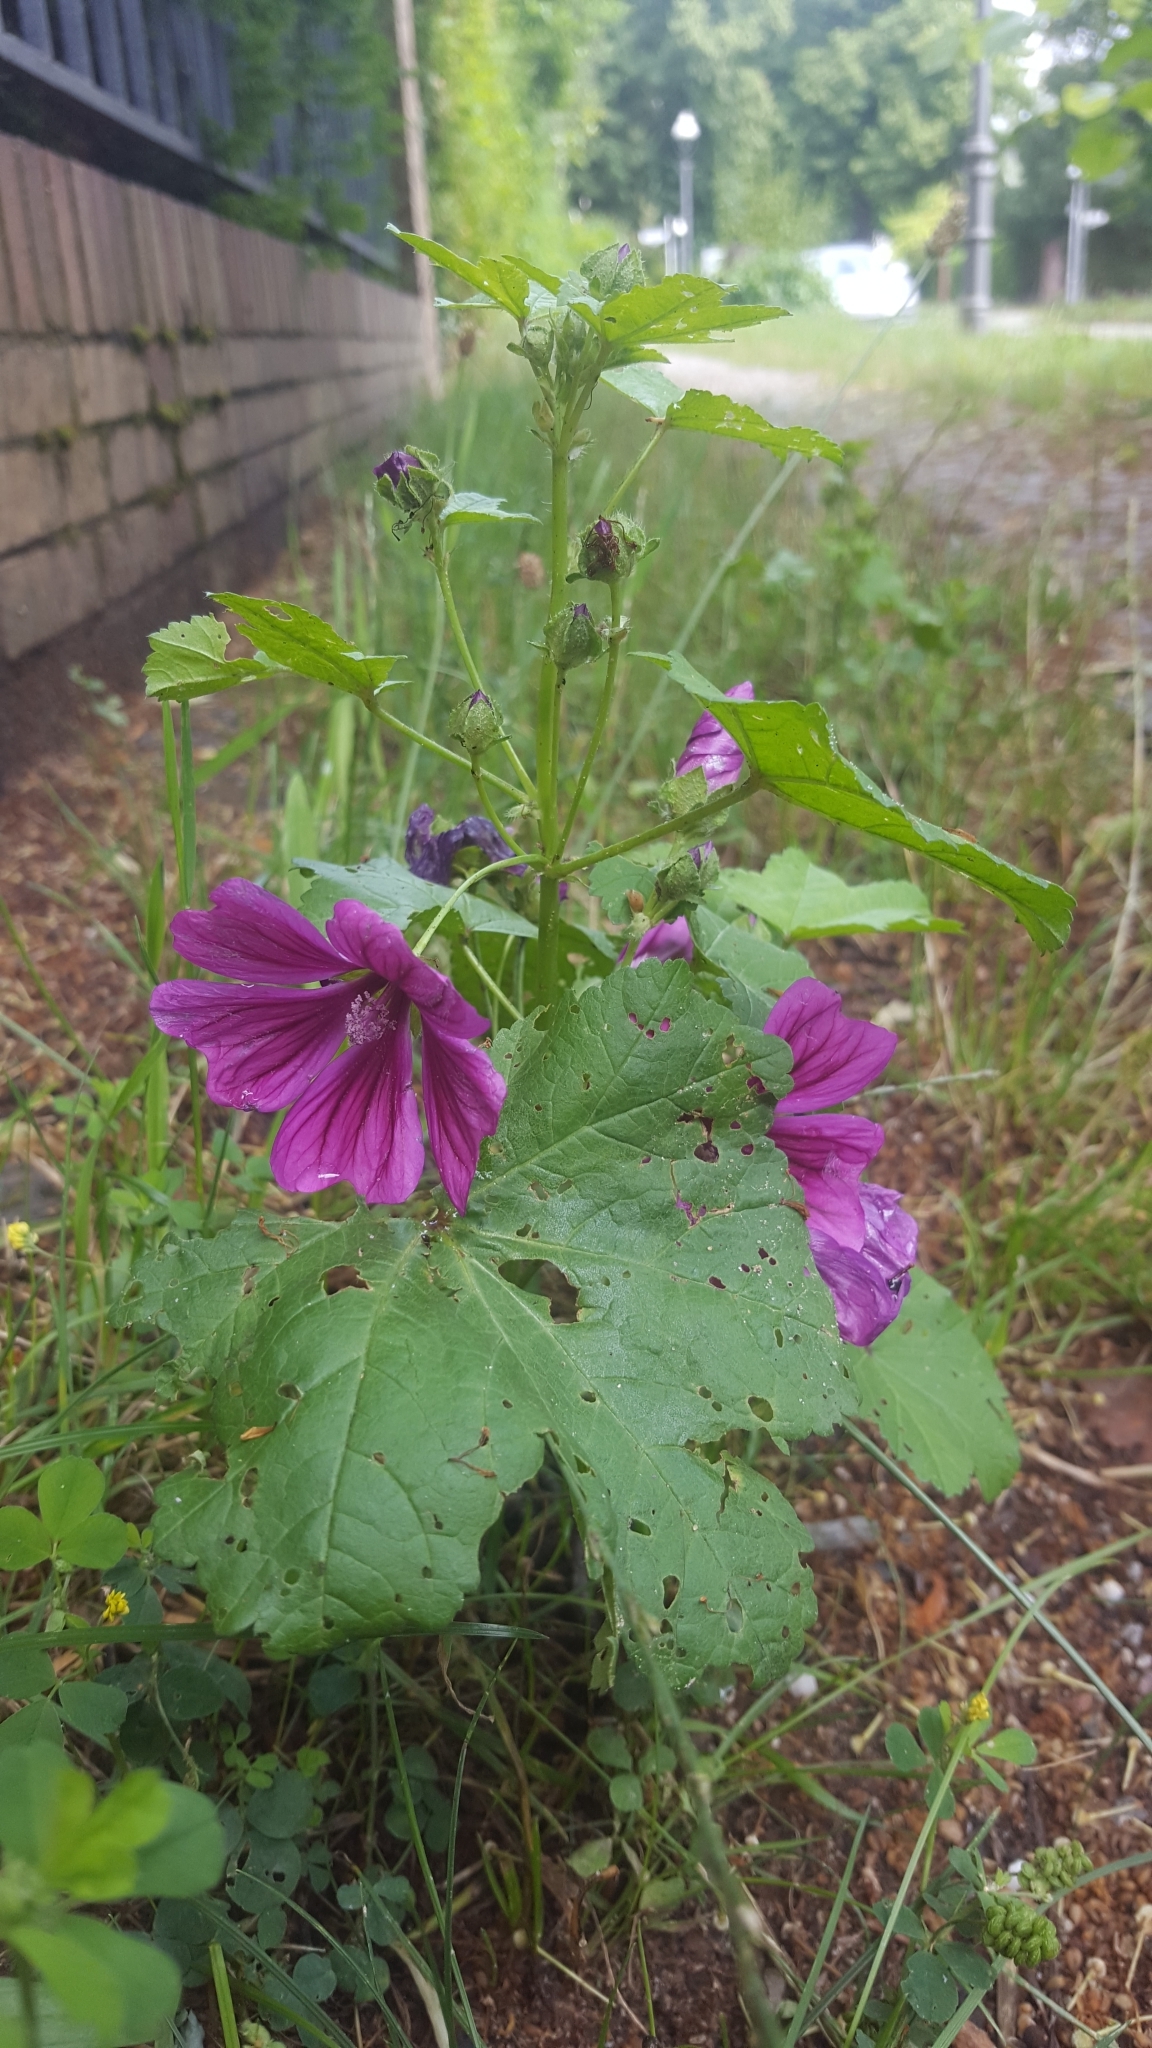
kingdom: Plantae
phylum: Tracheophyta
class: Magnoliopsida
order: Malvales
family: Malvaceae
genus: Malva
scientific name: Malva sylvestris
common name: Common mallow
